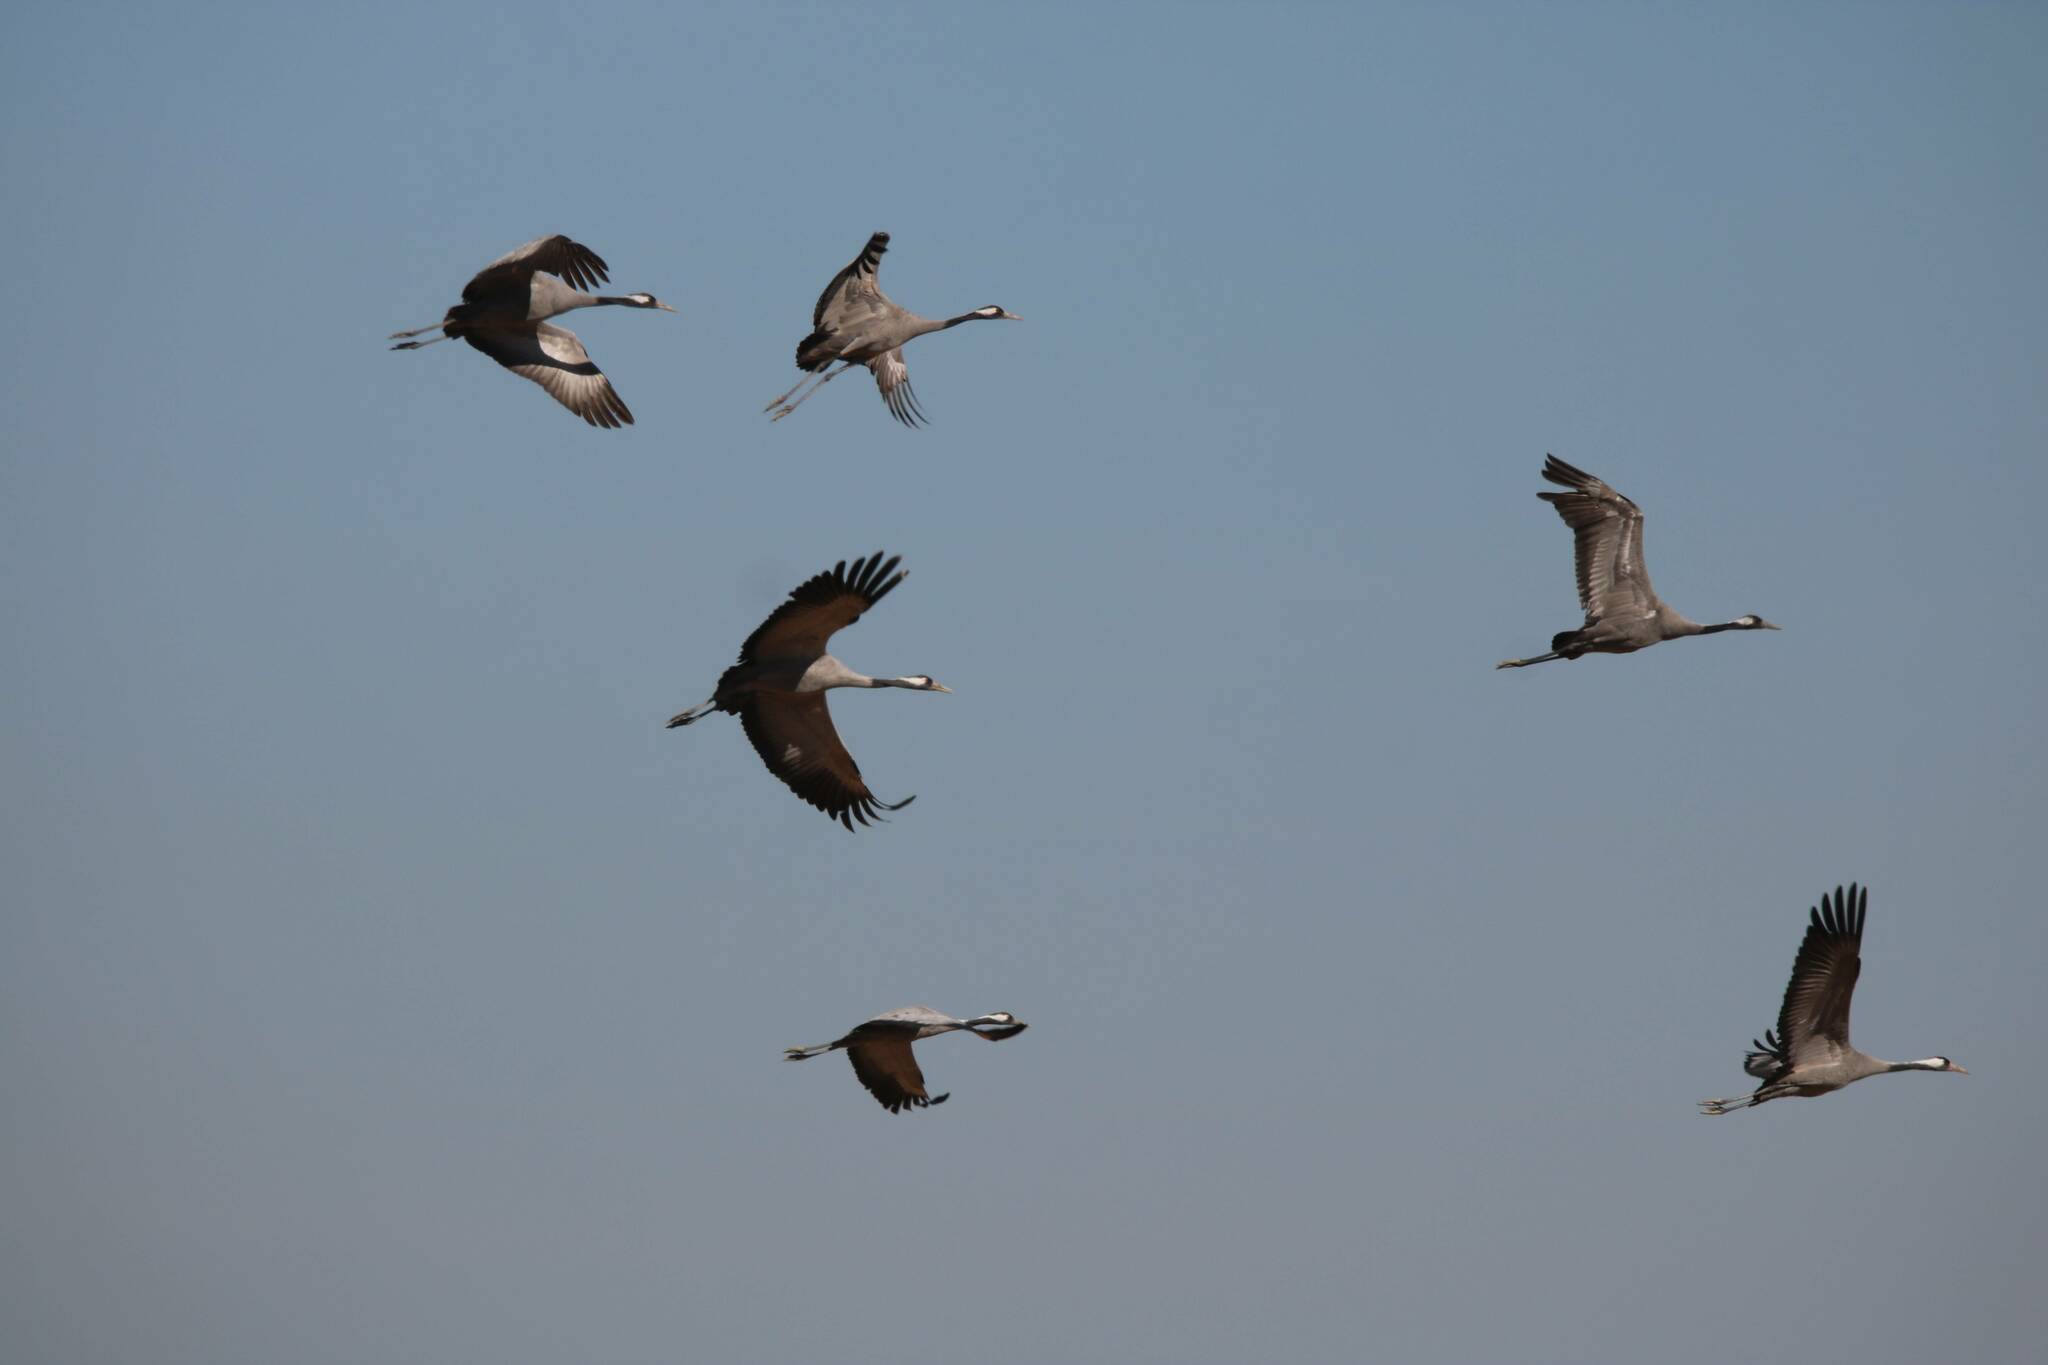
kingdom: Animalia
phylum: Chordata
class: Aves
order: Gruiformes
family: Gruidae
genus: Grus
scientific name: Grus grus
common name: Common crane
